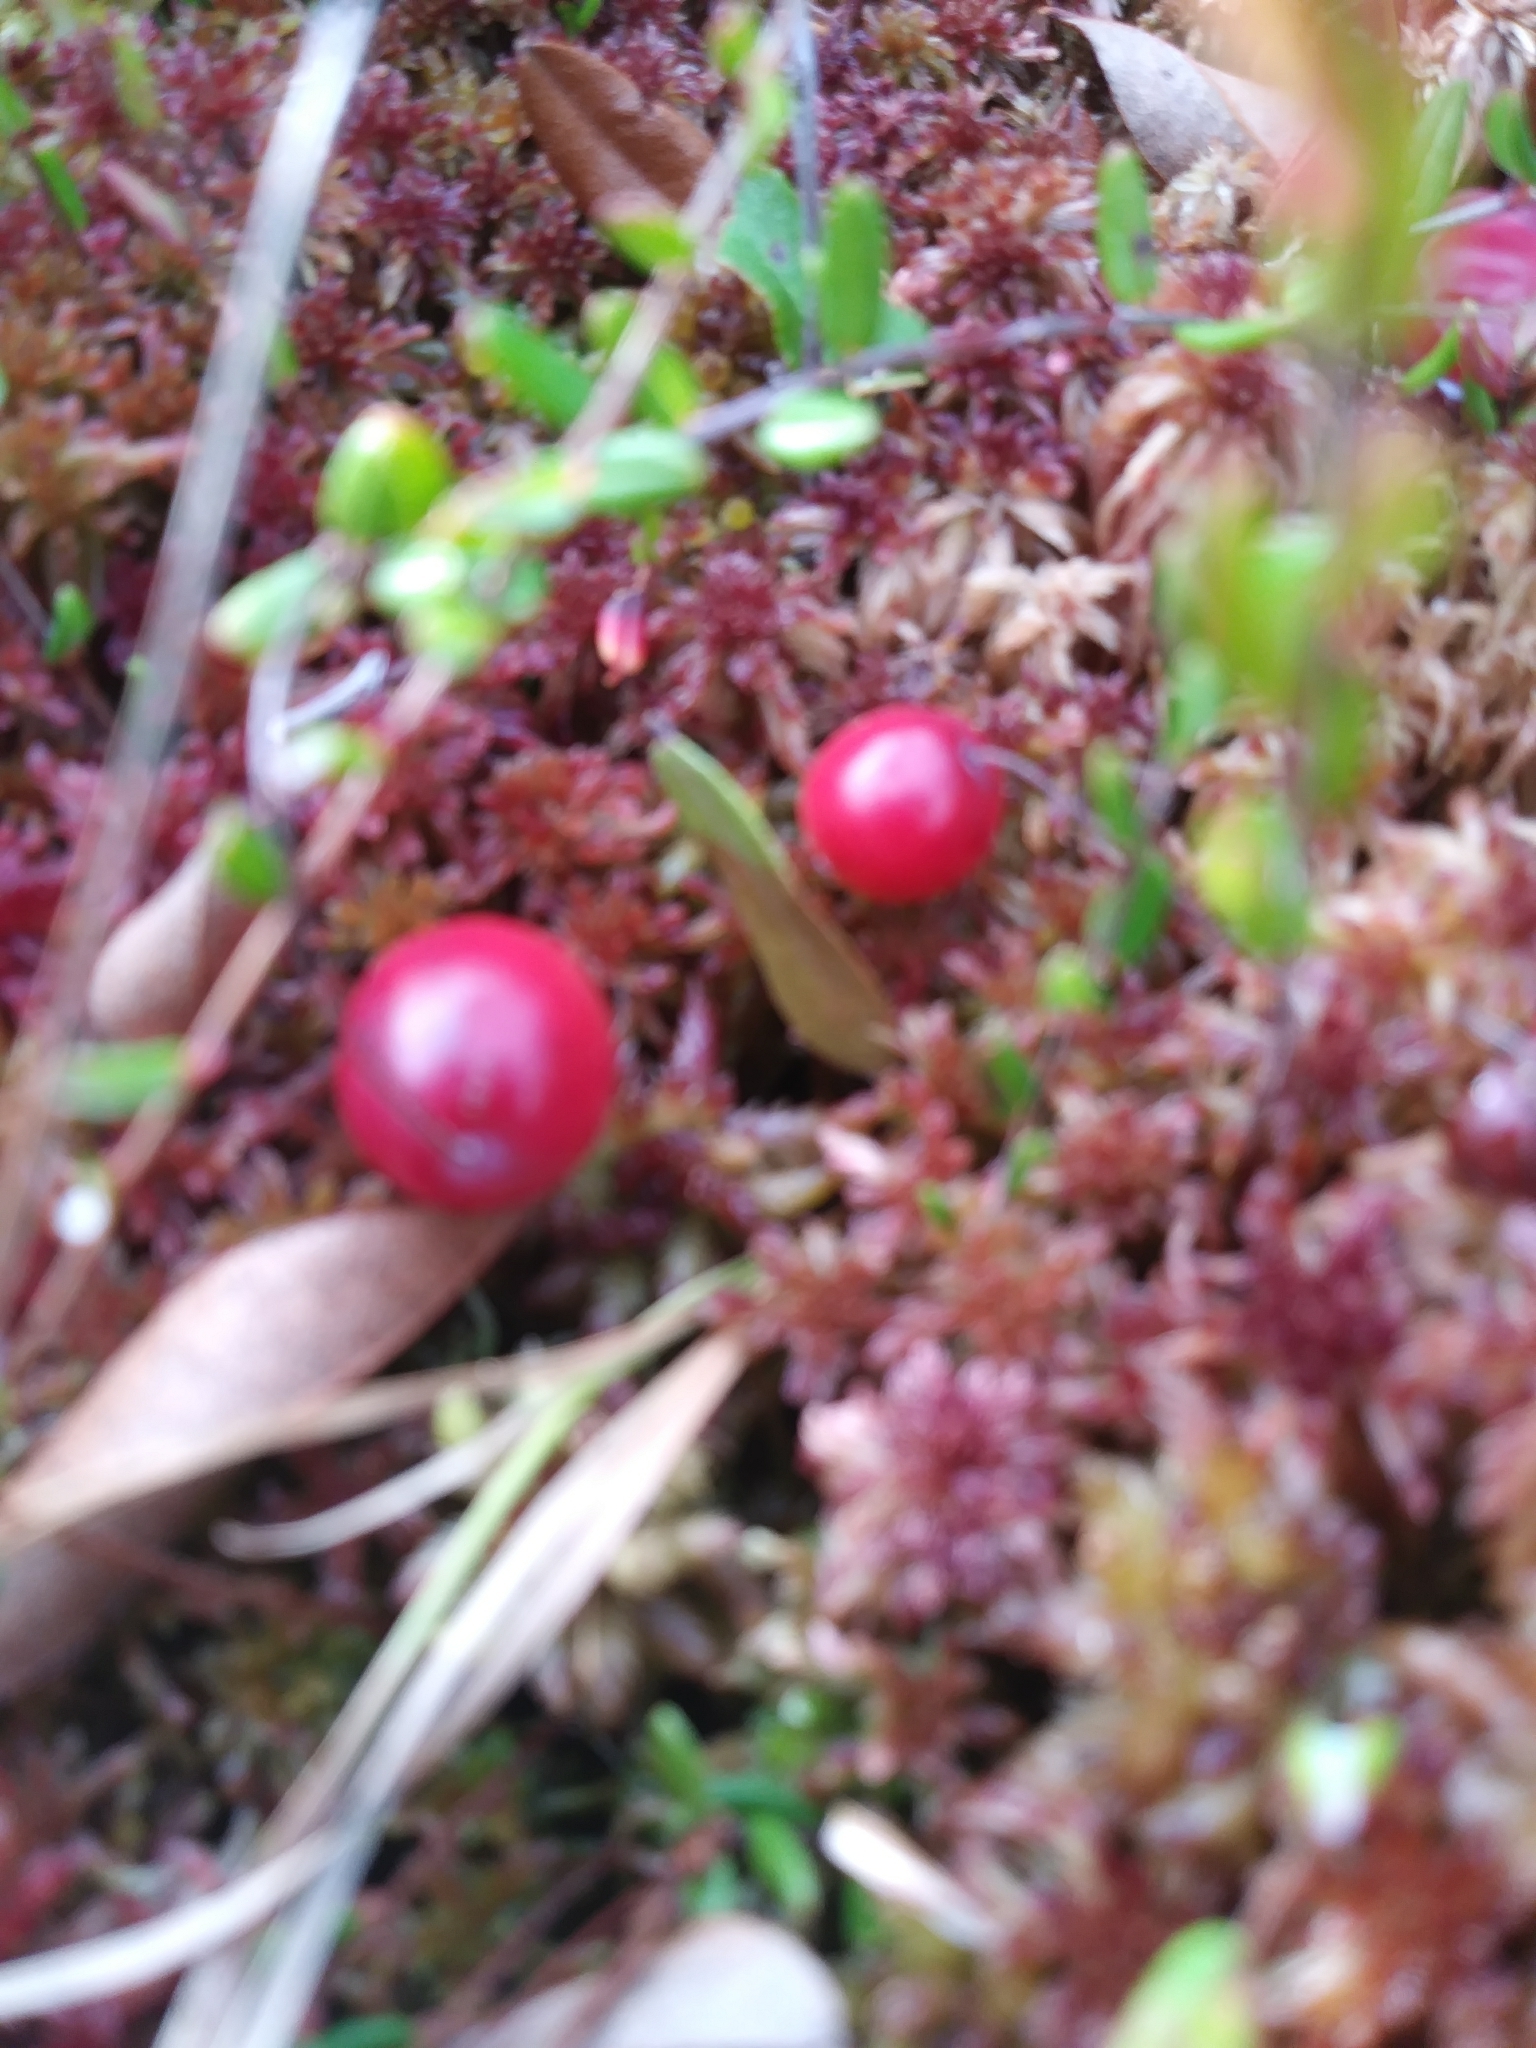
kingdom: Plantae
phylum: Tracheophyta
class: Magnoliopsida
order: Ericales
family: Ericaceae
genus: Vaccinium
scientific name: Vaccinium macrocarpon
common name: American cranberry
